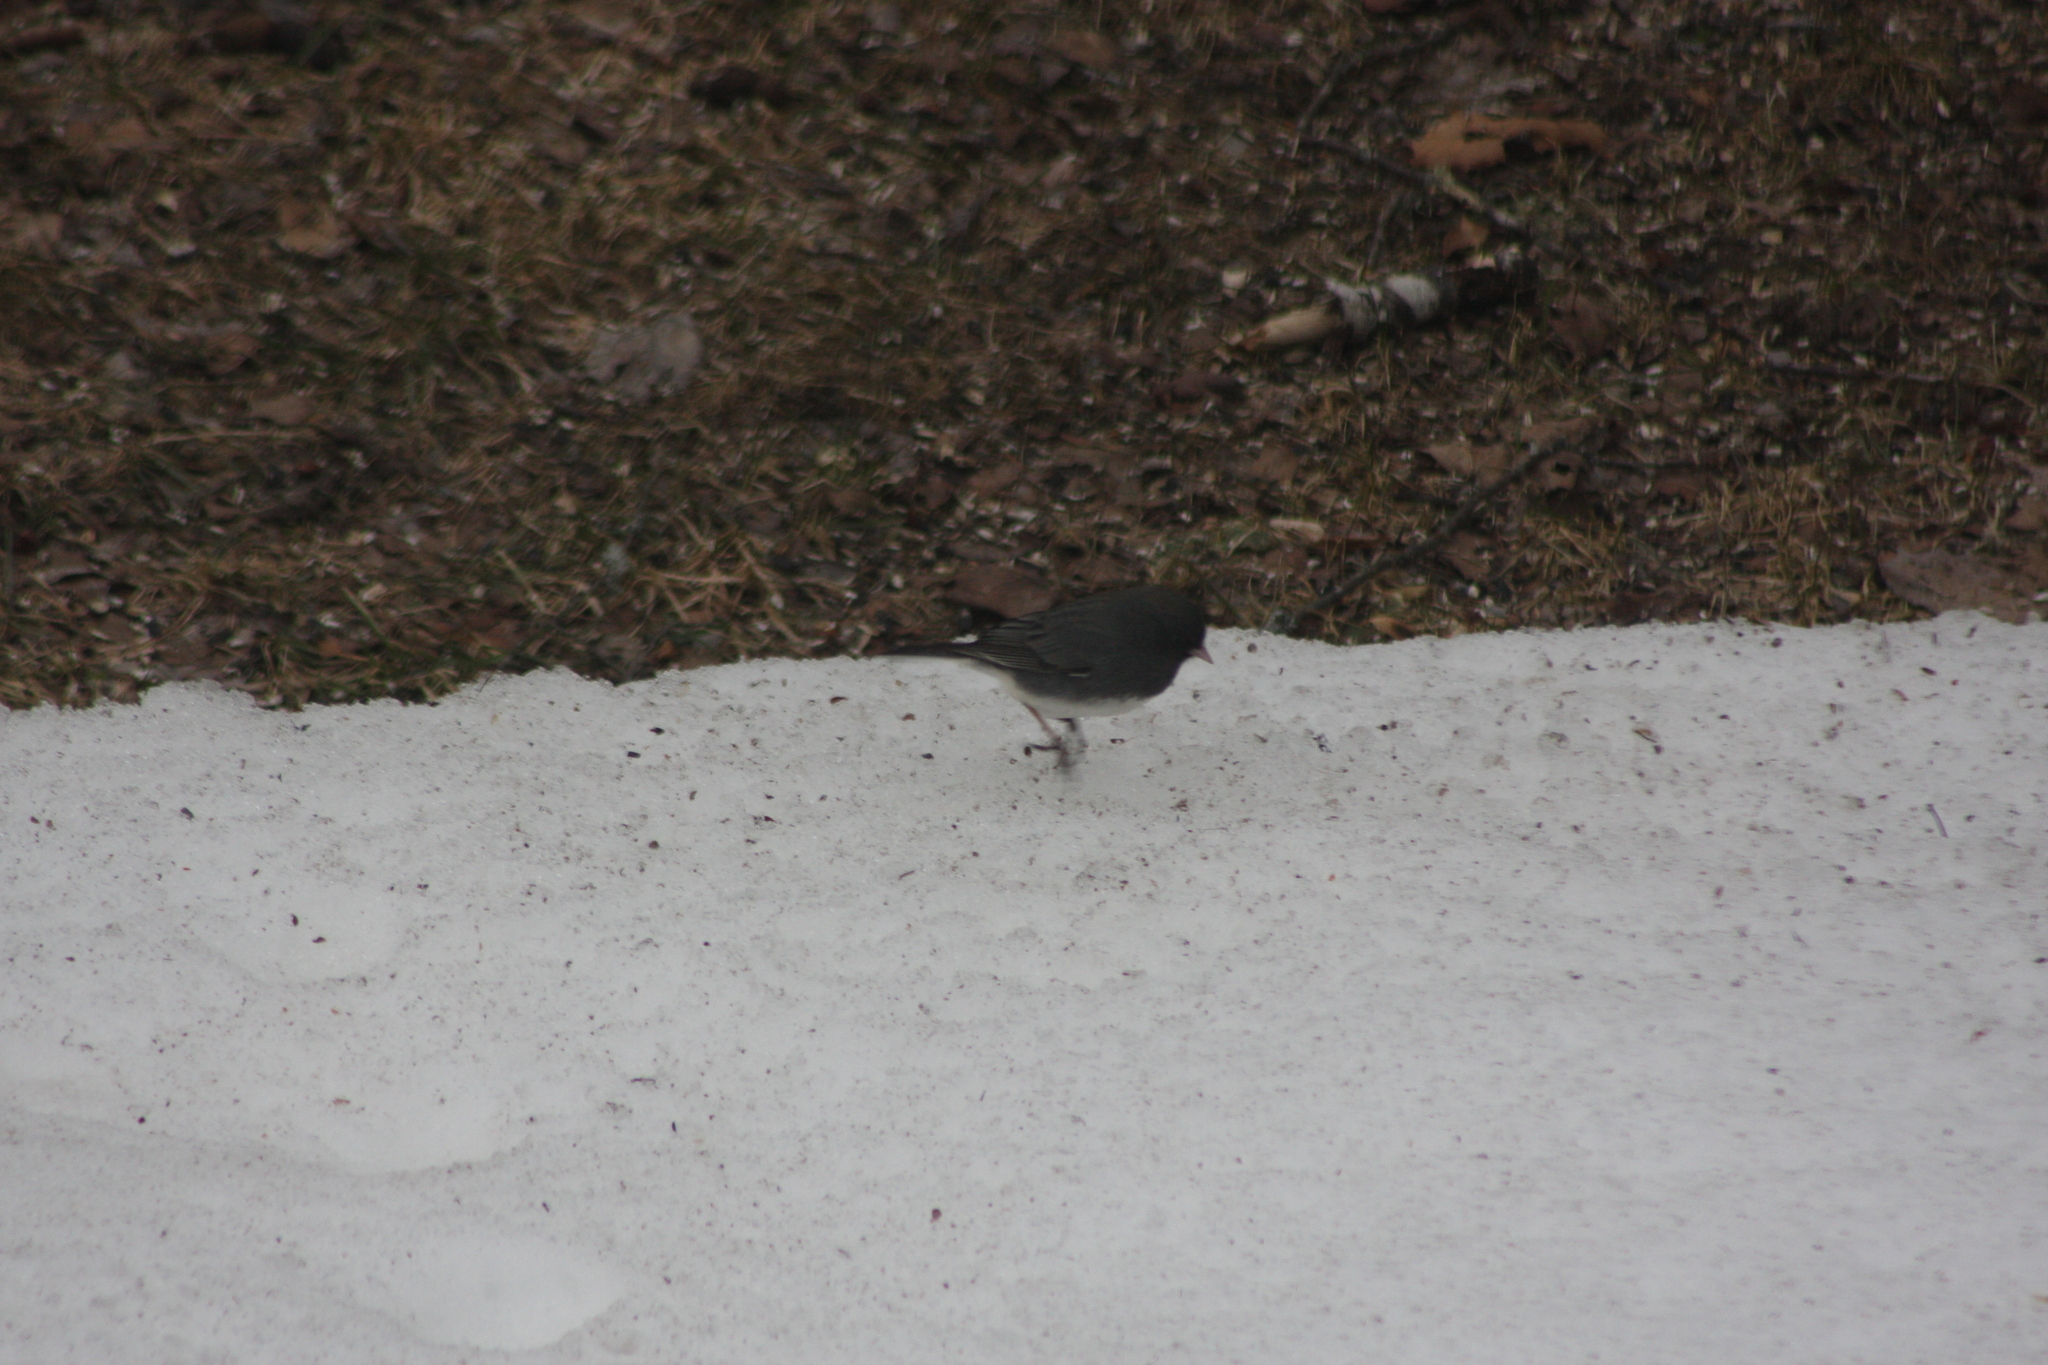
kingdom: Animalia
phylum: Chordata
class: Aves
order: Passeriformes
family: Passerellidae
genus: Junco
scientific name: Junco hyemalis
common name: Dark-eyed junco
